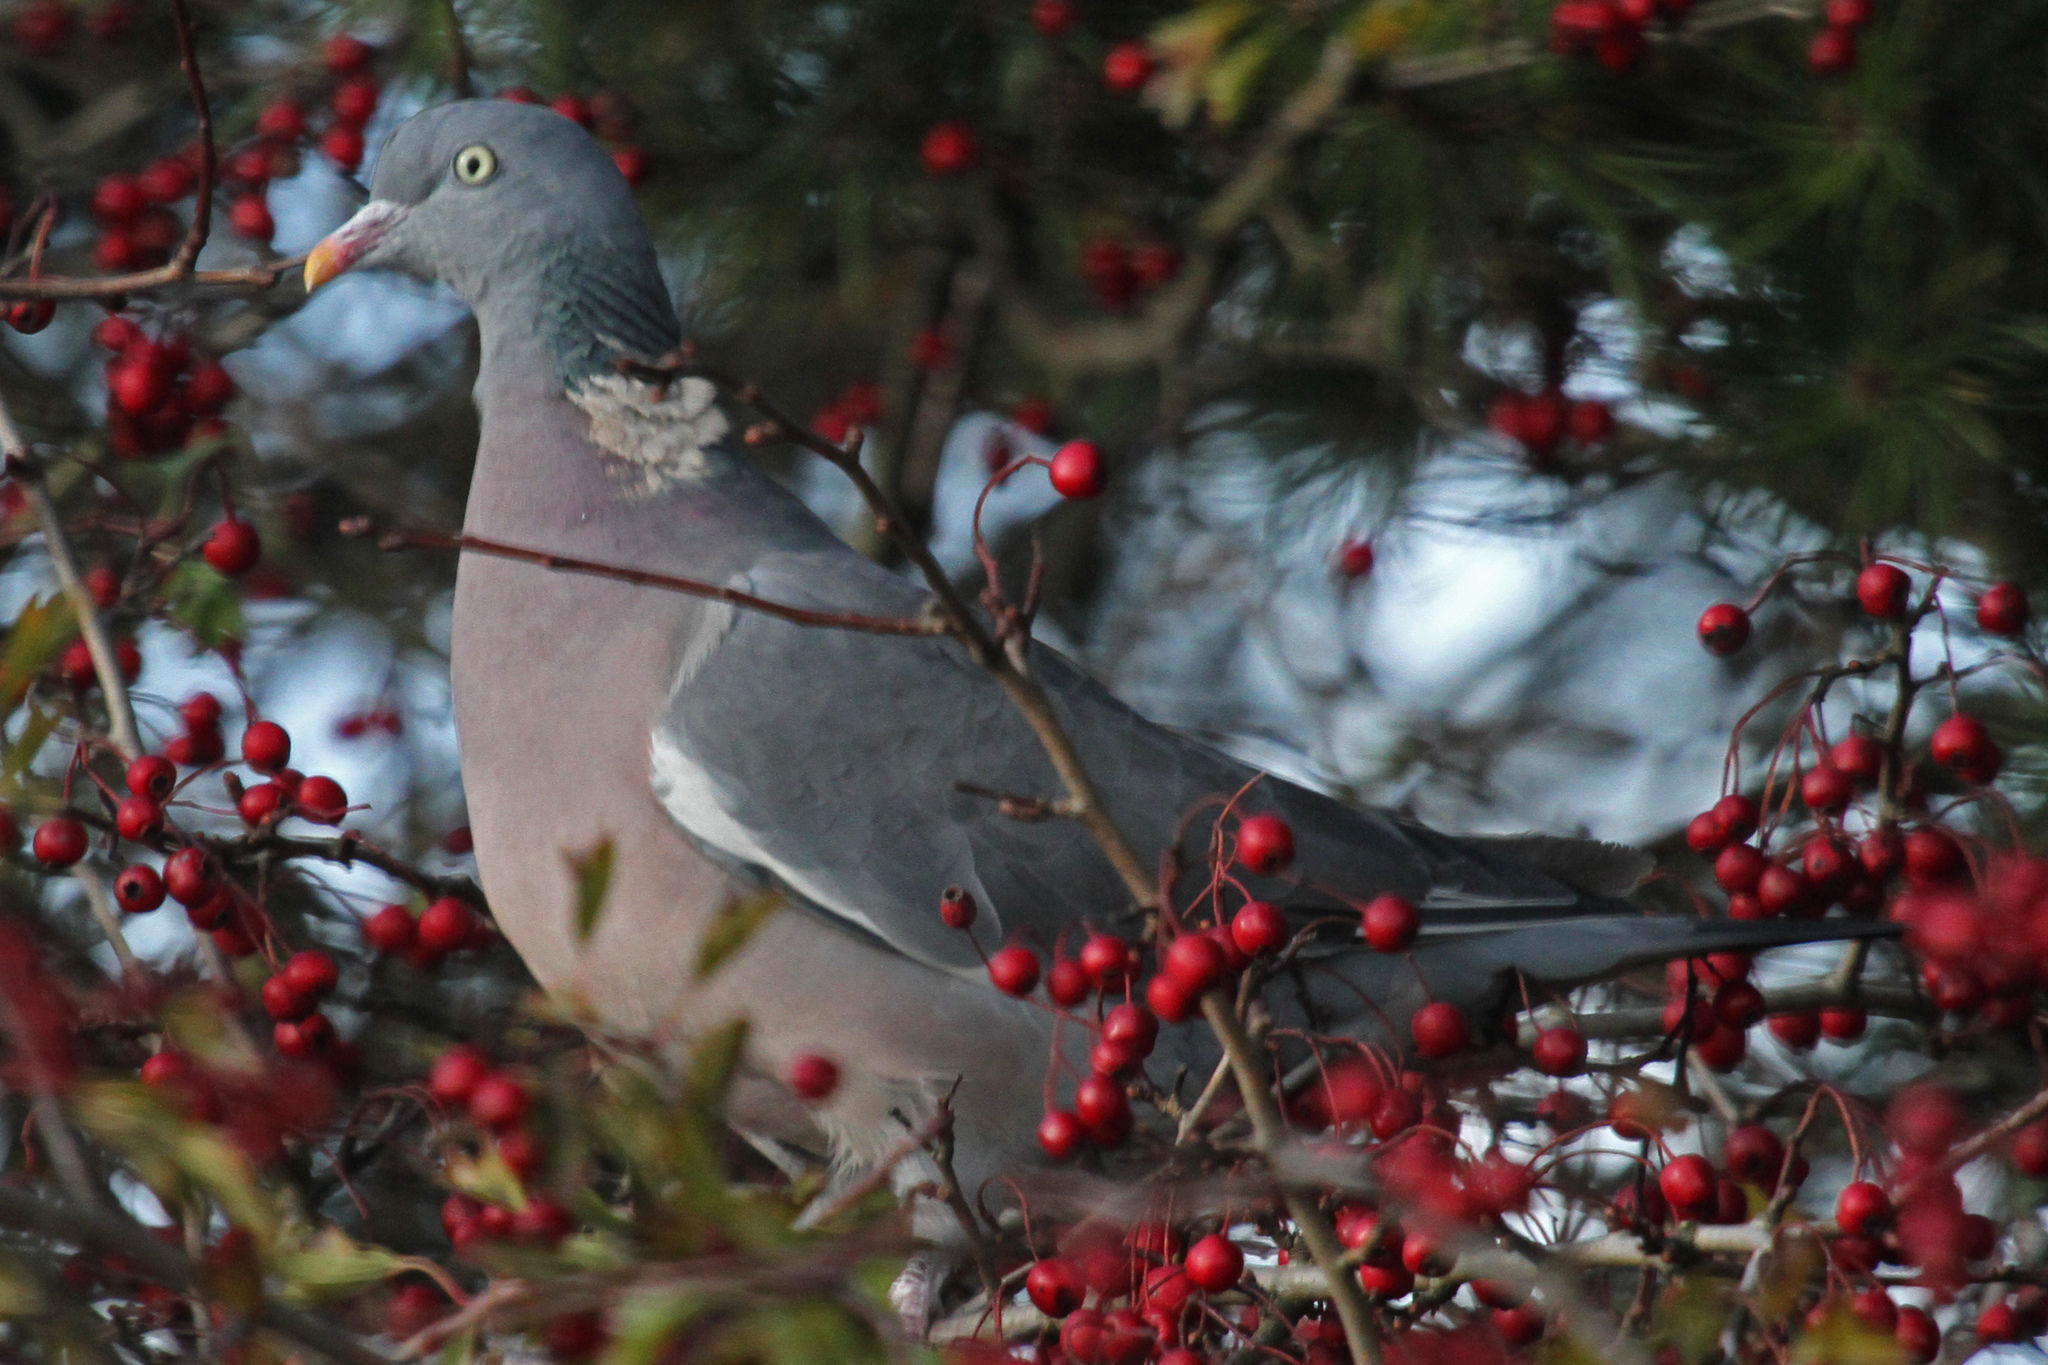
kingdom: Animalia
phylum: Chordata
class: Aves
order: Columbiformes
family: Columbidae
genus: Columba
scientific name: Columba palumbus
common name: Common wood pigeon
